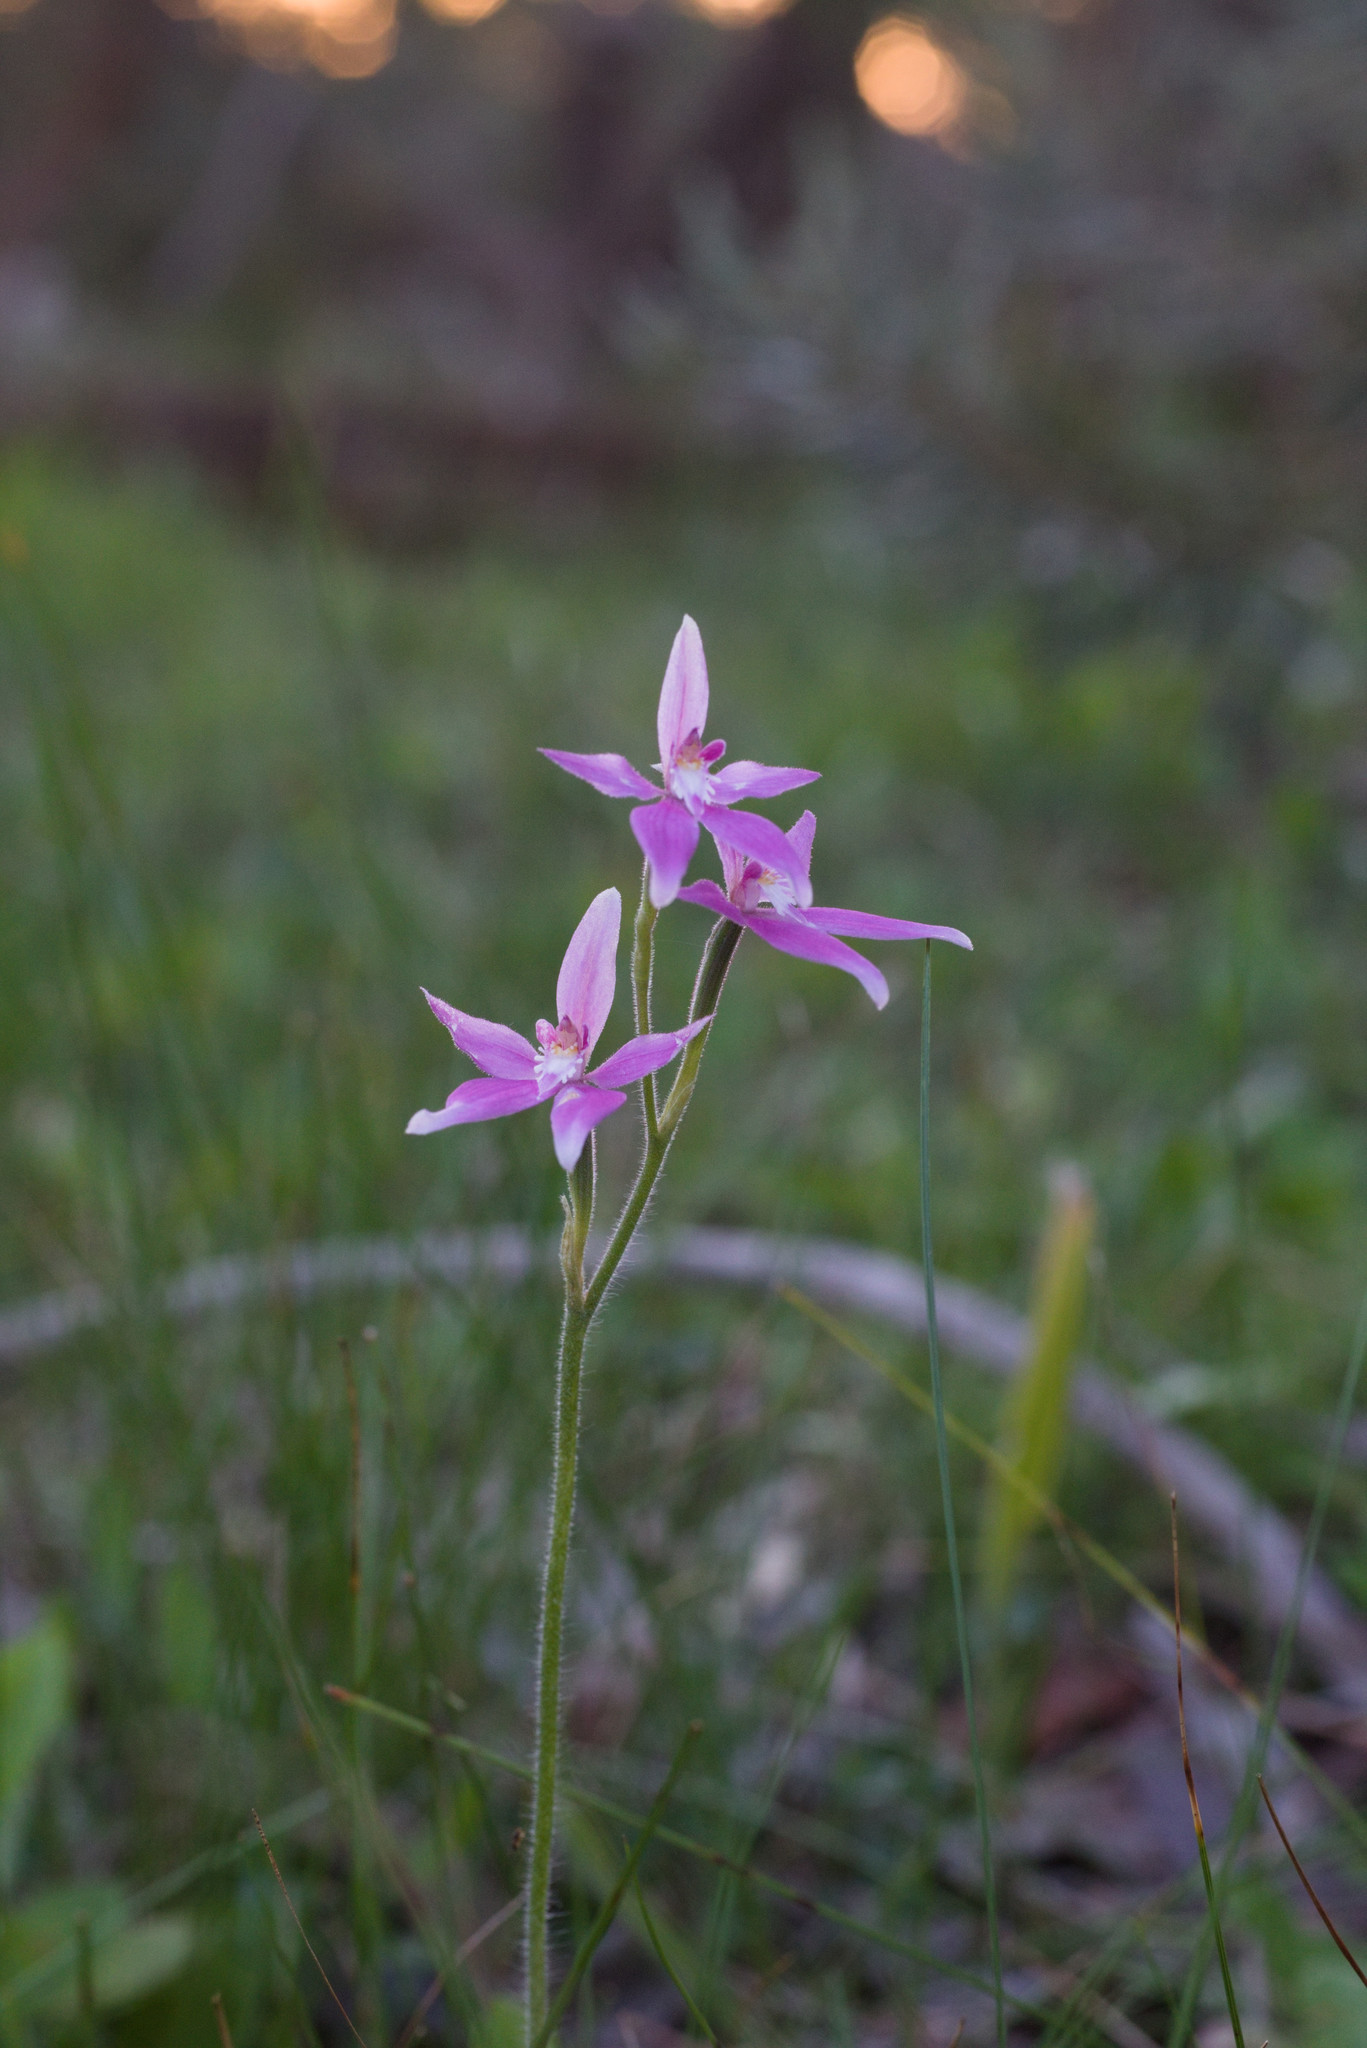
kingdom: Plantae
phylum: Tracheophyta
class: Liliopsida
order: Asparagales
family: Orchidaceae
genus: Caladenia
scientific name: Caladenia latifolia
